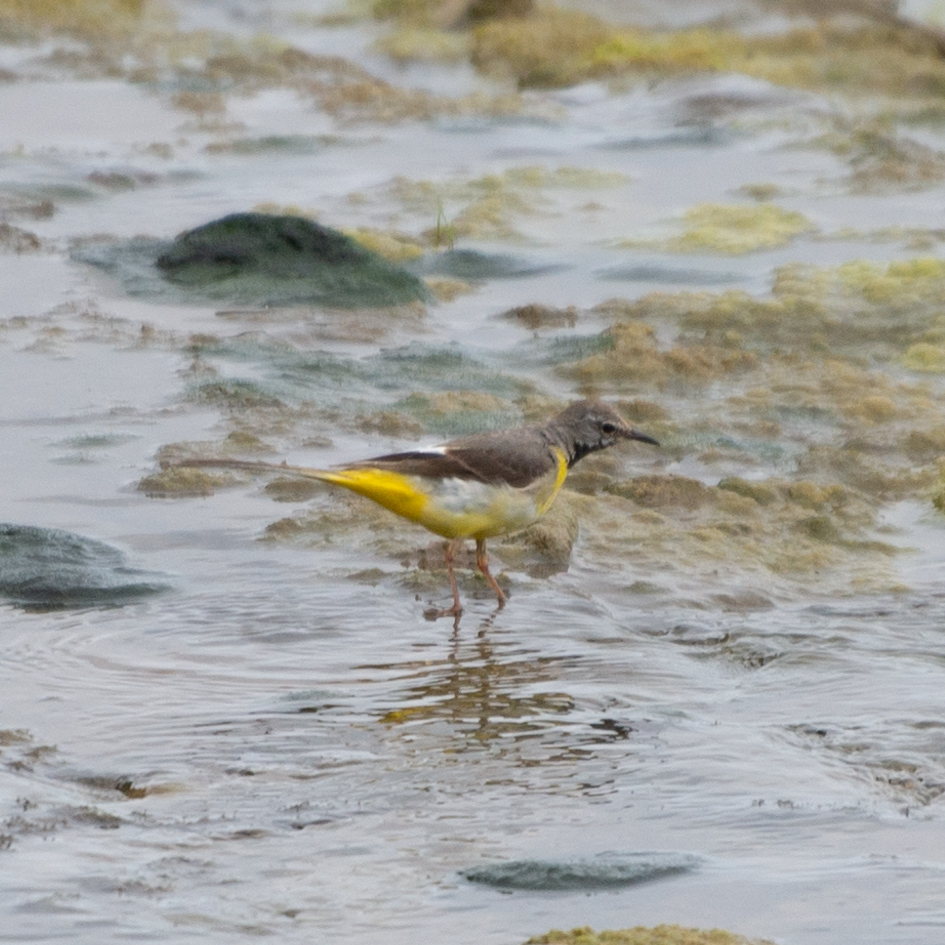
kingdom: Animalia
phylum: Chordata
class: Aves
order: Passeriformes
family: Motacillidae
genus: Motacilla
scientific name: Motacilla cinerea
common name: Grey wagtail
